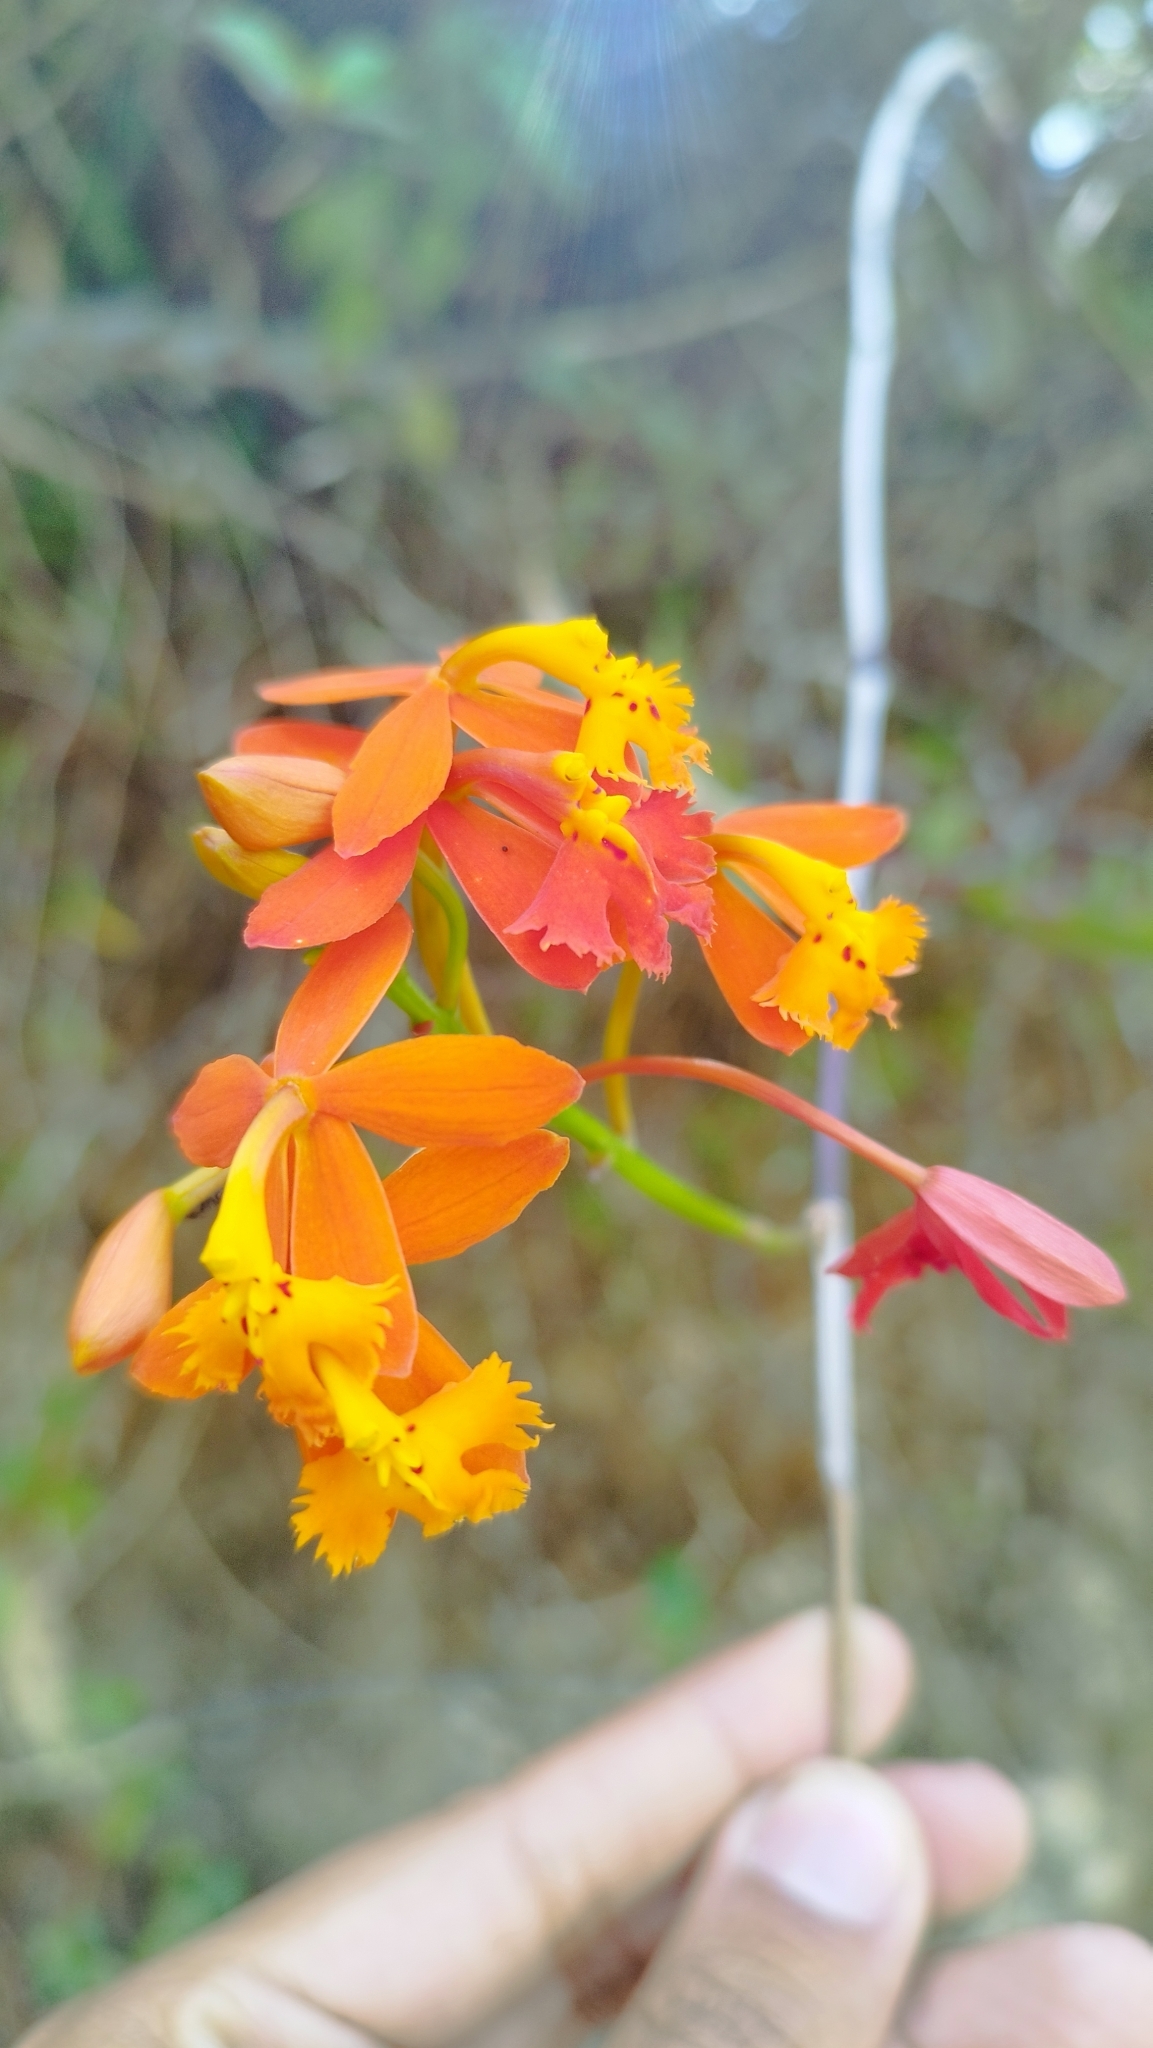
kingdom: Plantae
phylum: Tracheophyta
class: Liliopsida
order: Asparagales
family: Orchidaceae
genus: Epidendrum
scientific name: Epidendrum radicans
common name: Fire star orchid
